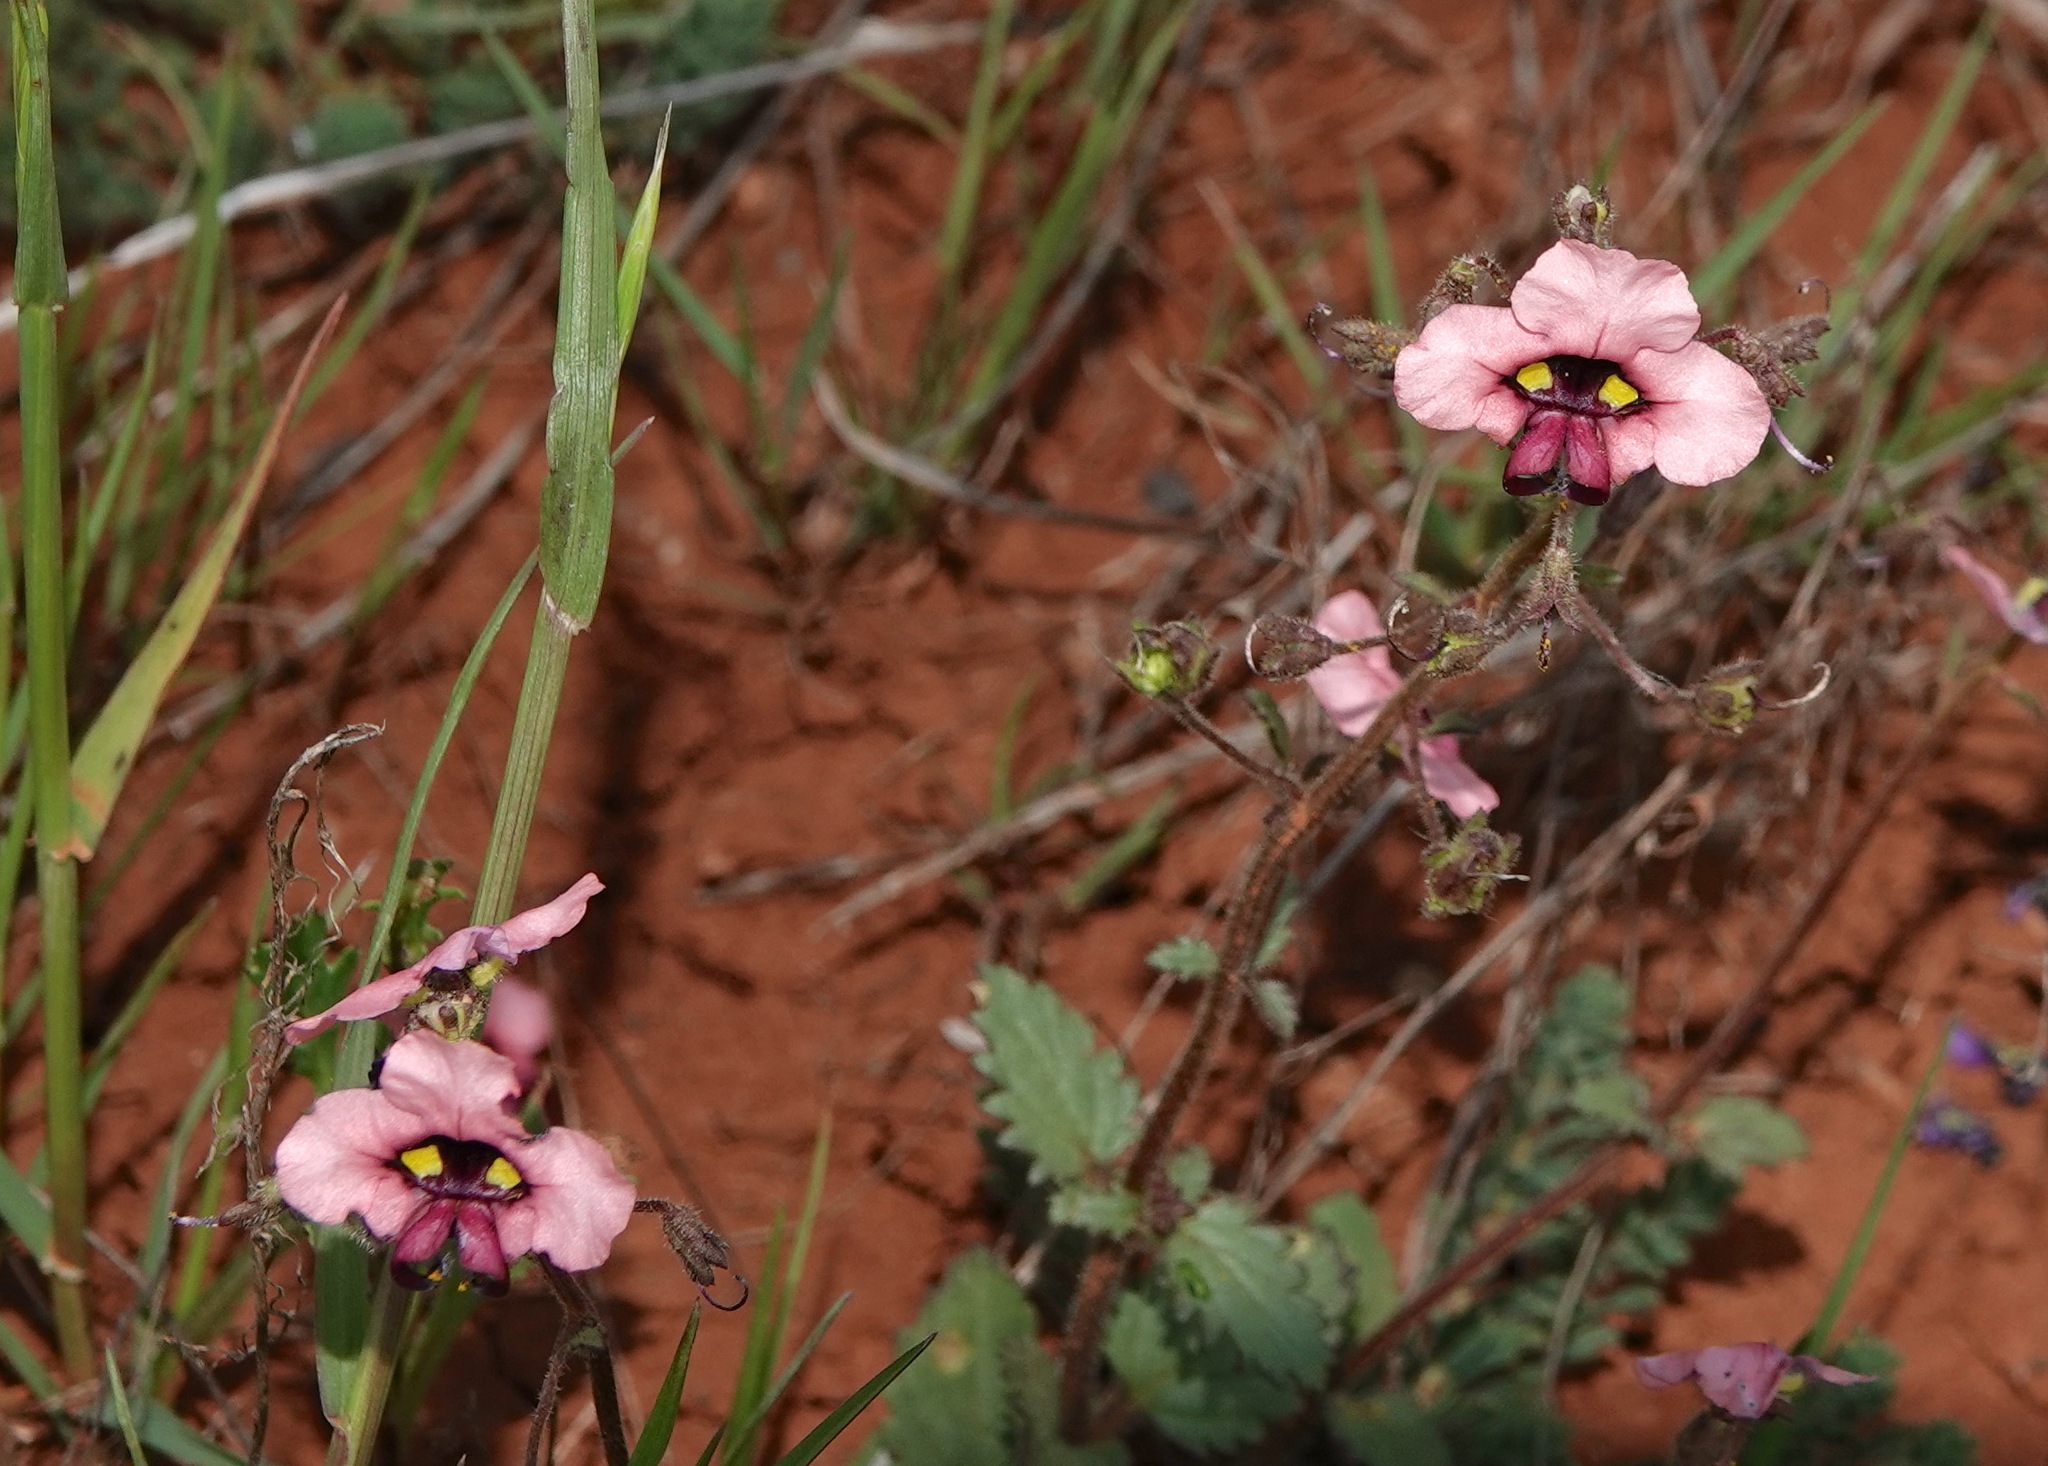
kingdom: Plantae
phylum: Tracheophyta
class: Magnoliopsida
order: Lamiales
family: Scrophulariaceae
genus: Alonsoa
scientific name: Alonsoa unilabiata
